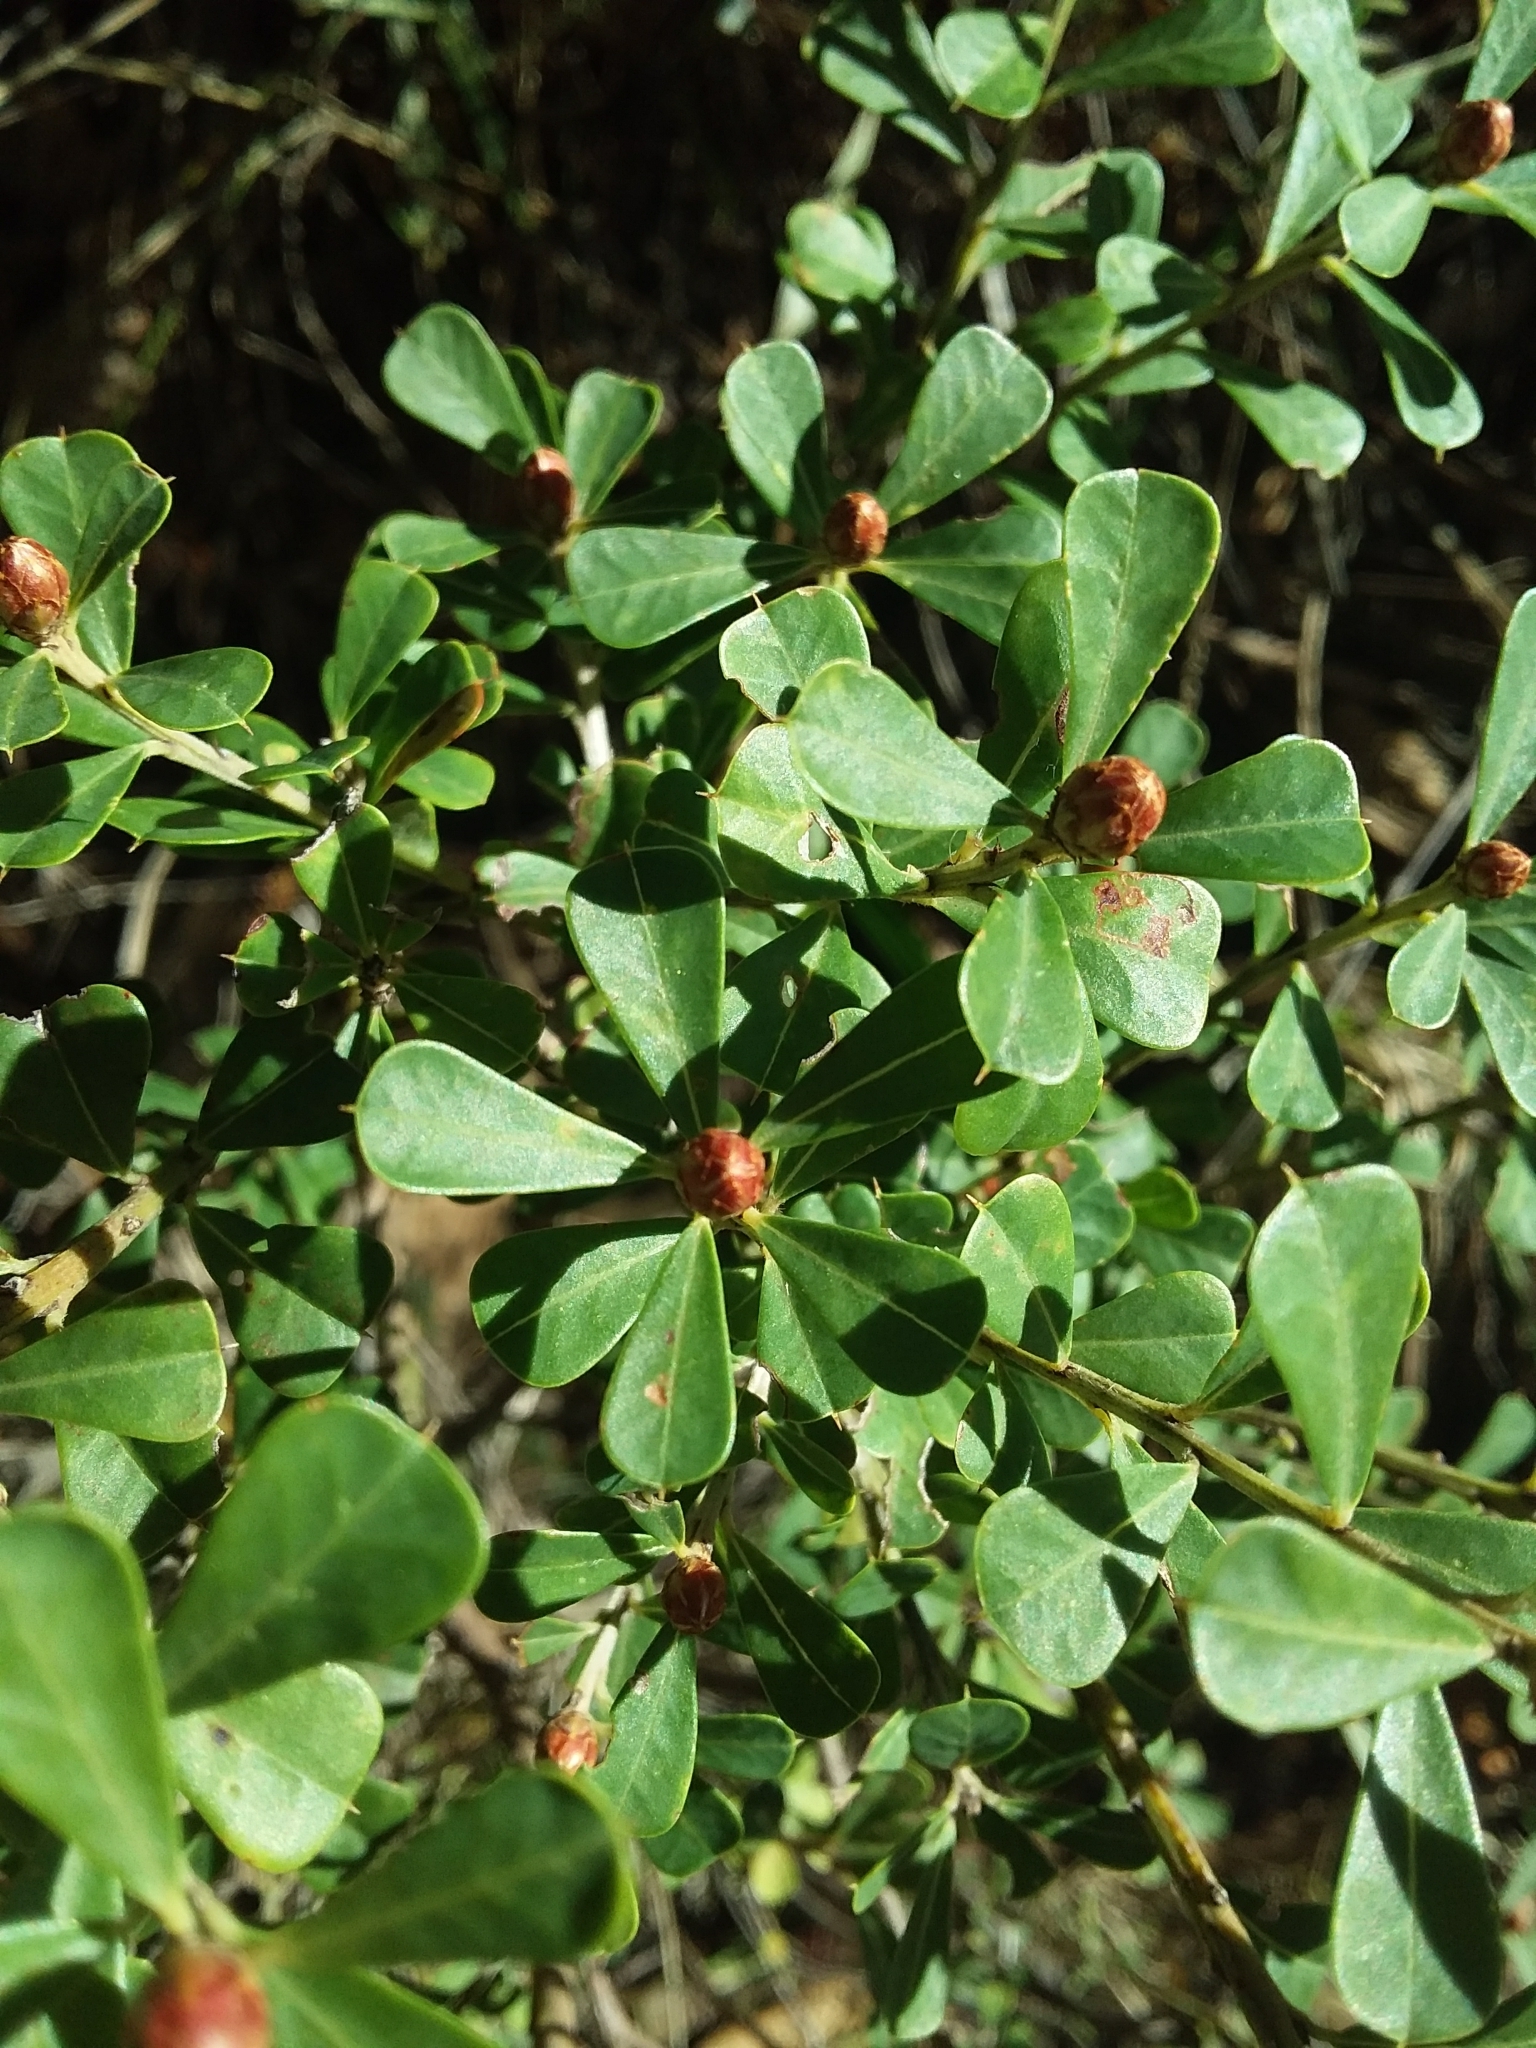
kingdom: Plantae
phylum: Tracheophyta
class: Magnoliopsida
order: Fabales
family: Fabaceae
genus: Pultenaea
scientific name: Pultenaea daphnoides
